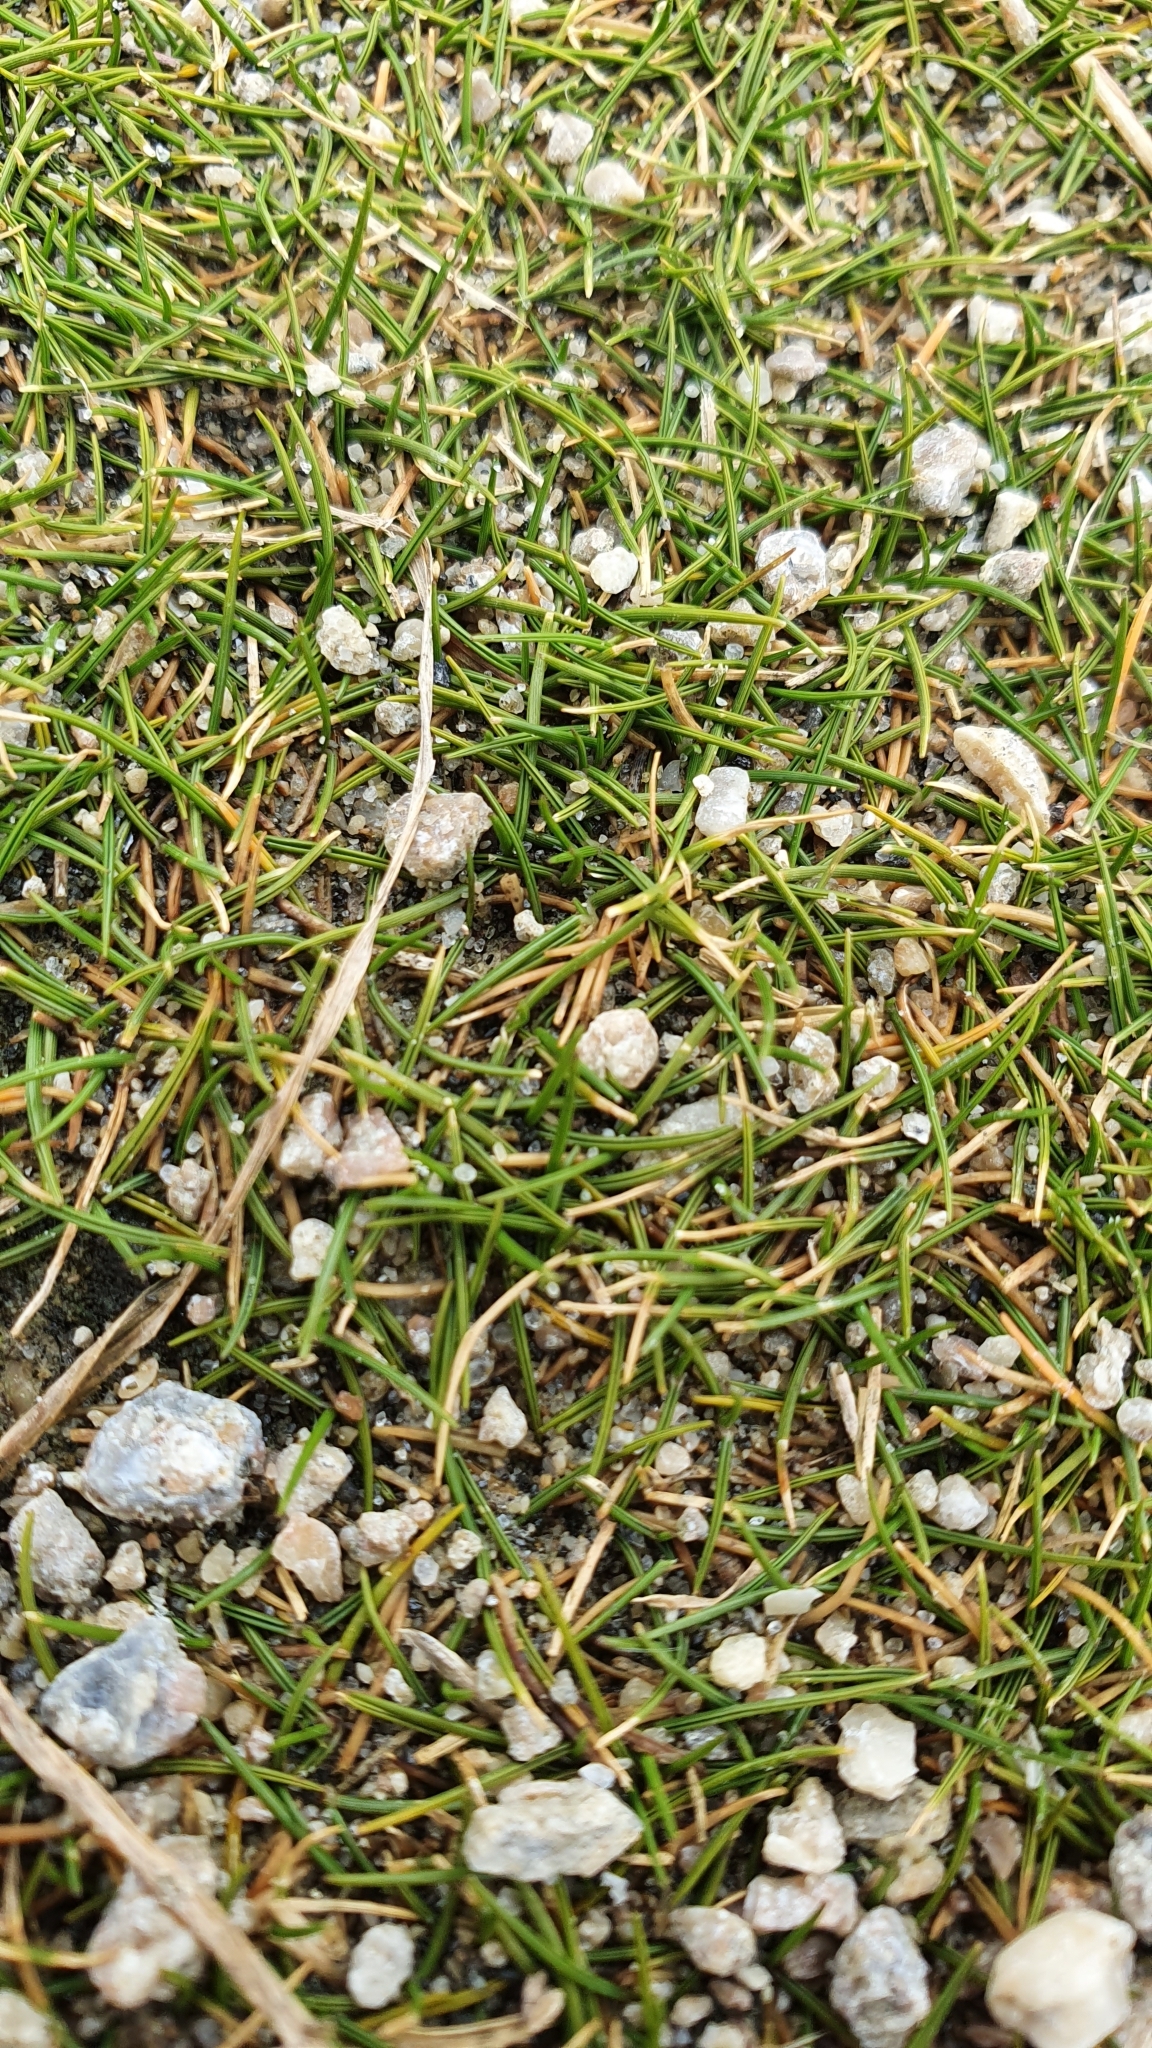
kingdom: Plantae
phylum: Tracheophyta
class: Liliopsida
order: Poales
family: Poaceae
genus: Zoysia
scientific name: Zoysia minima
